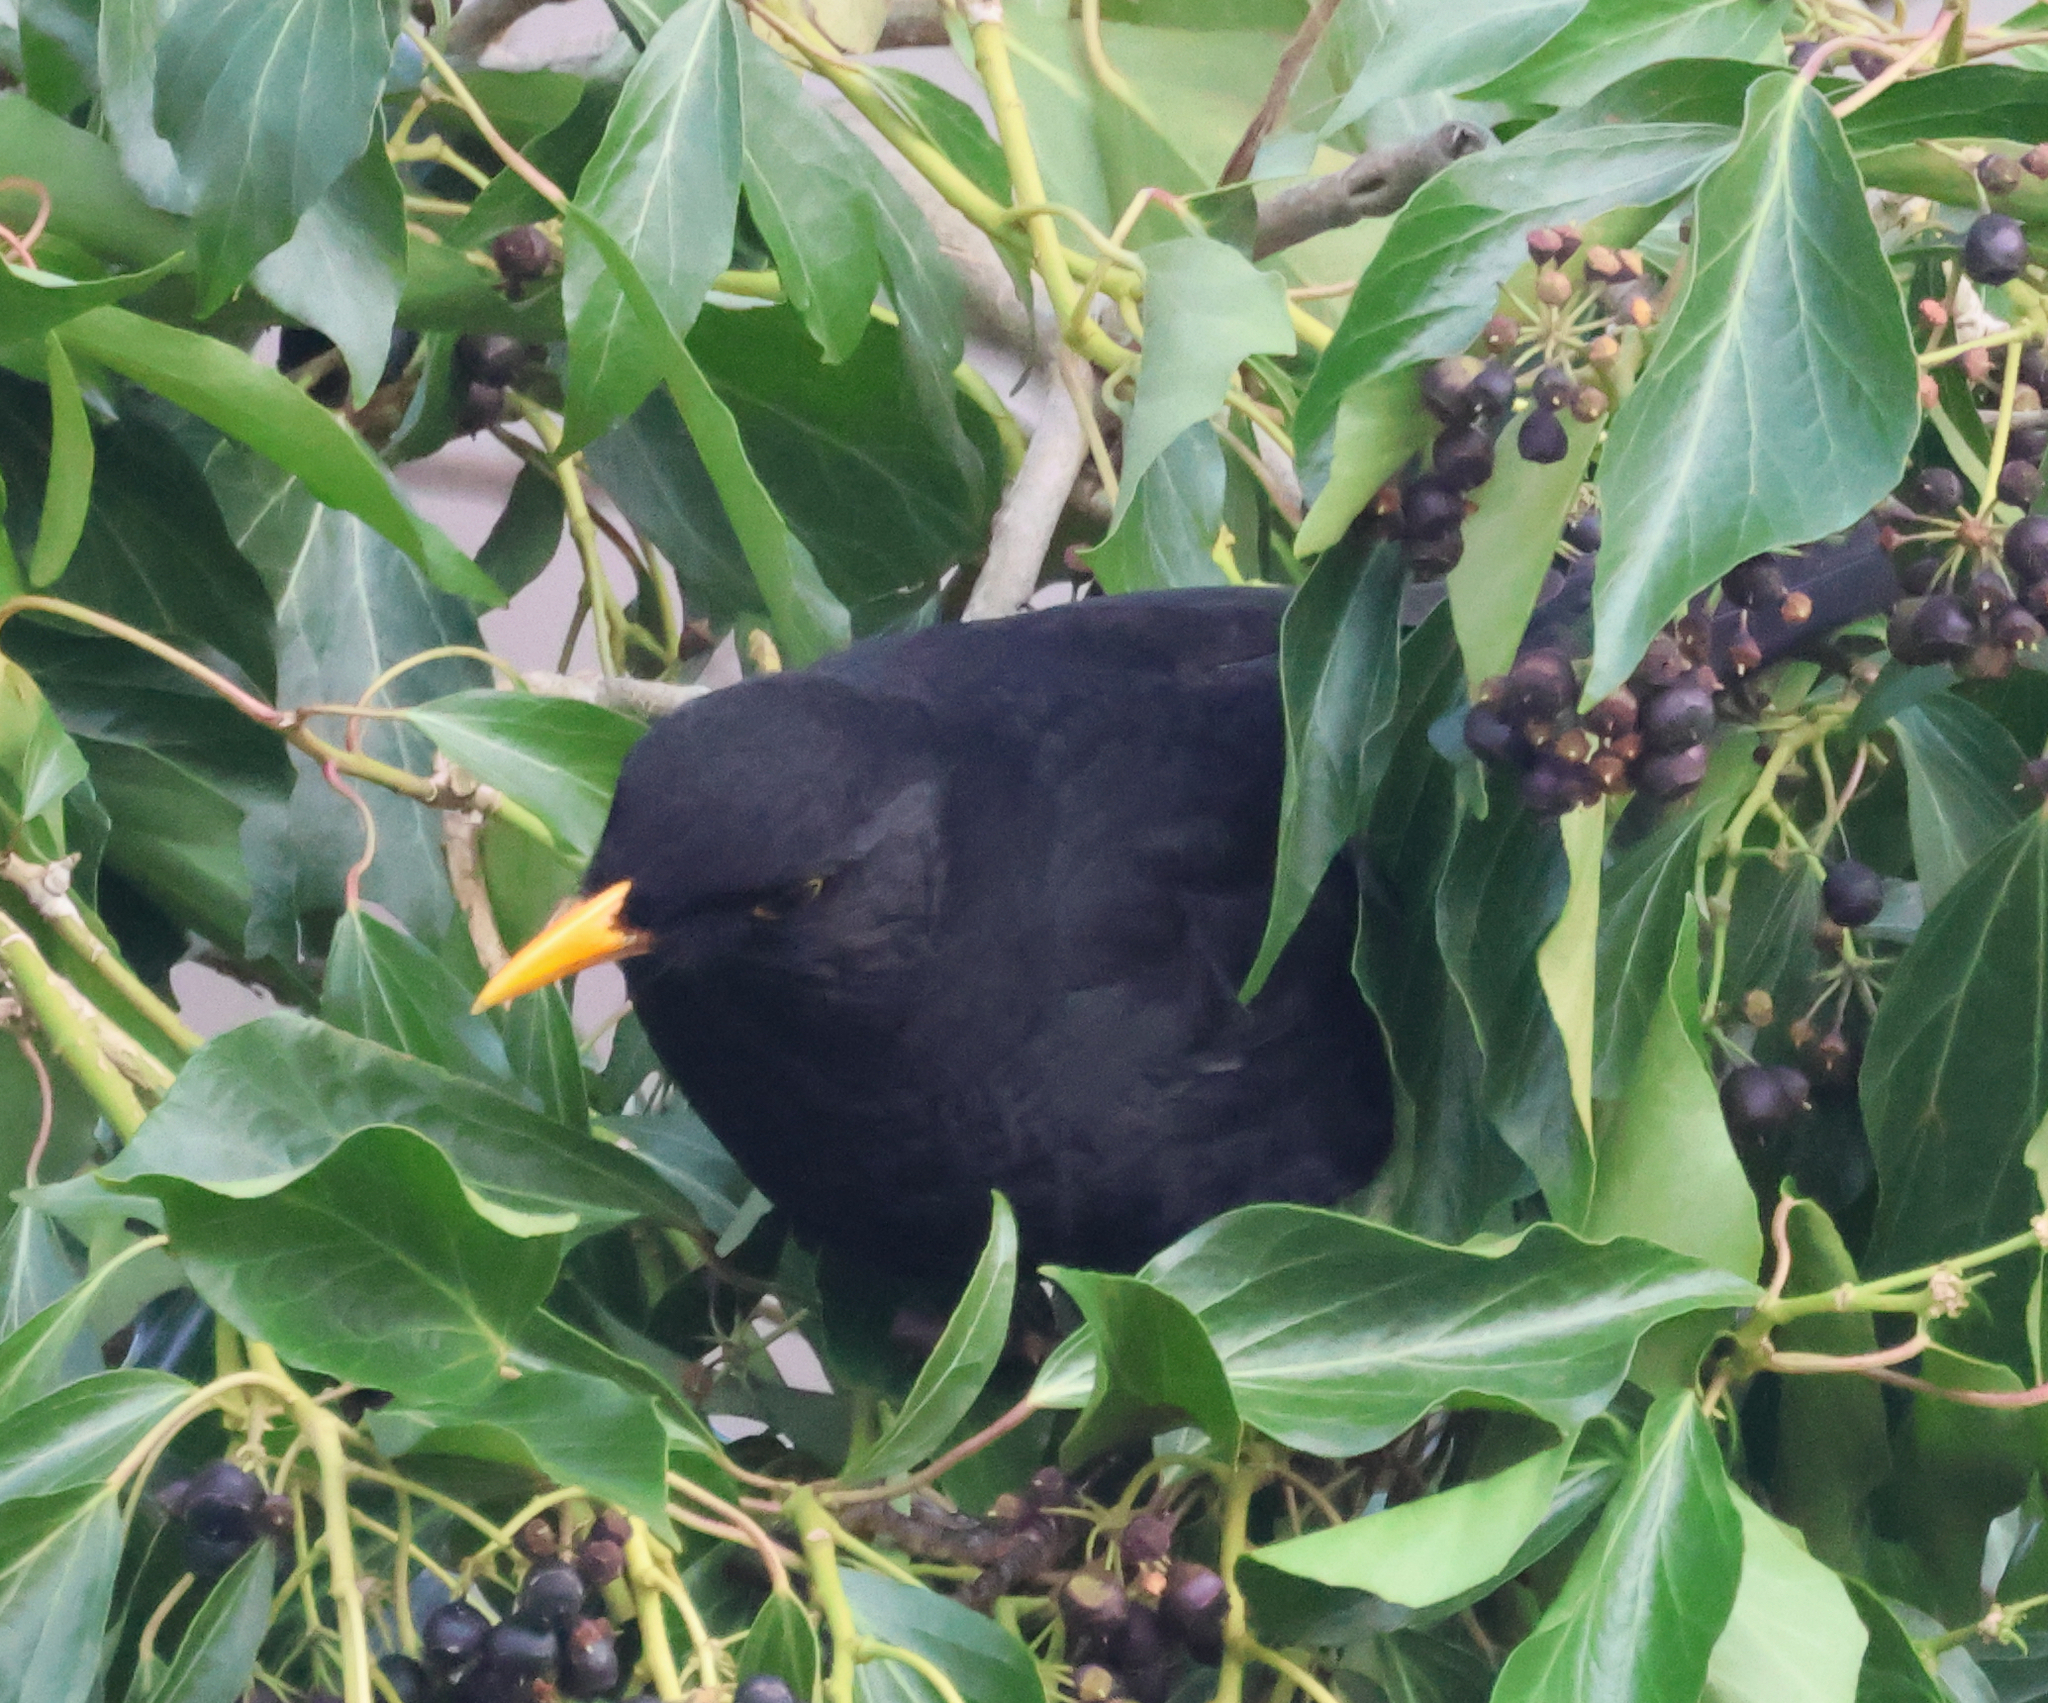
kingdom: Animalia
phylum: Chordata
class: Aves
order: Passeriformes
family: Turdidae
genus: Turdus
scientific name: Turdus merula
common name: Common blackbird
